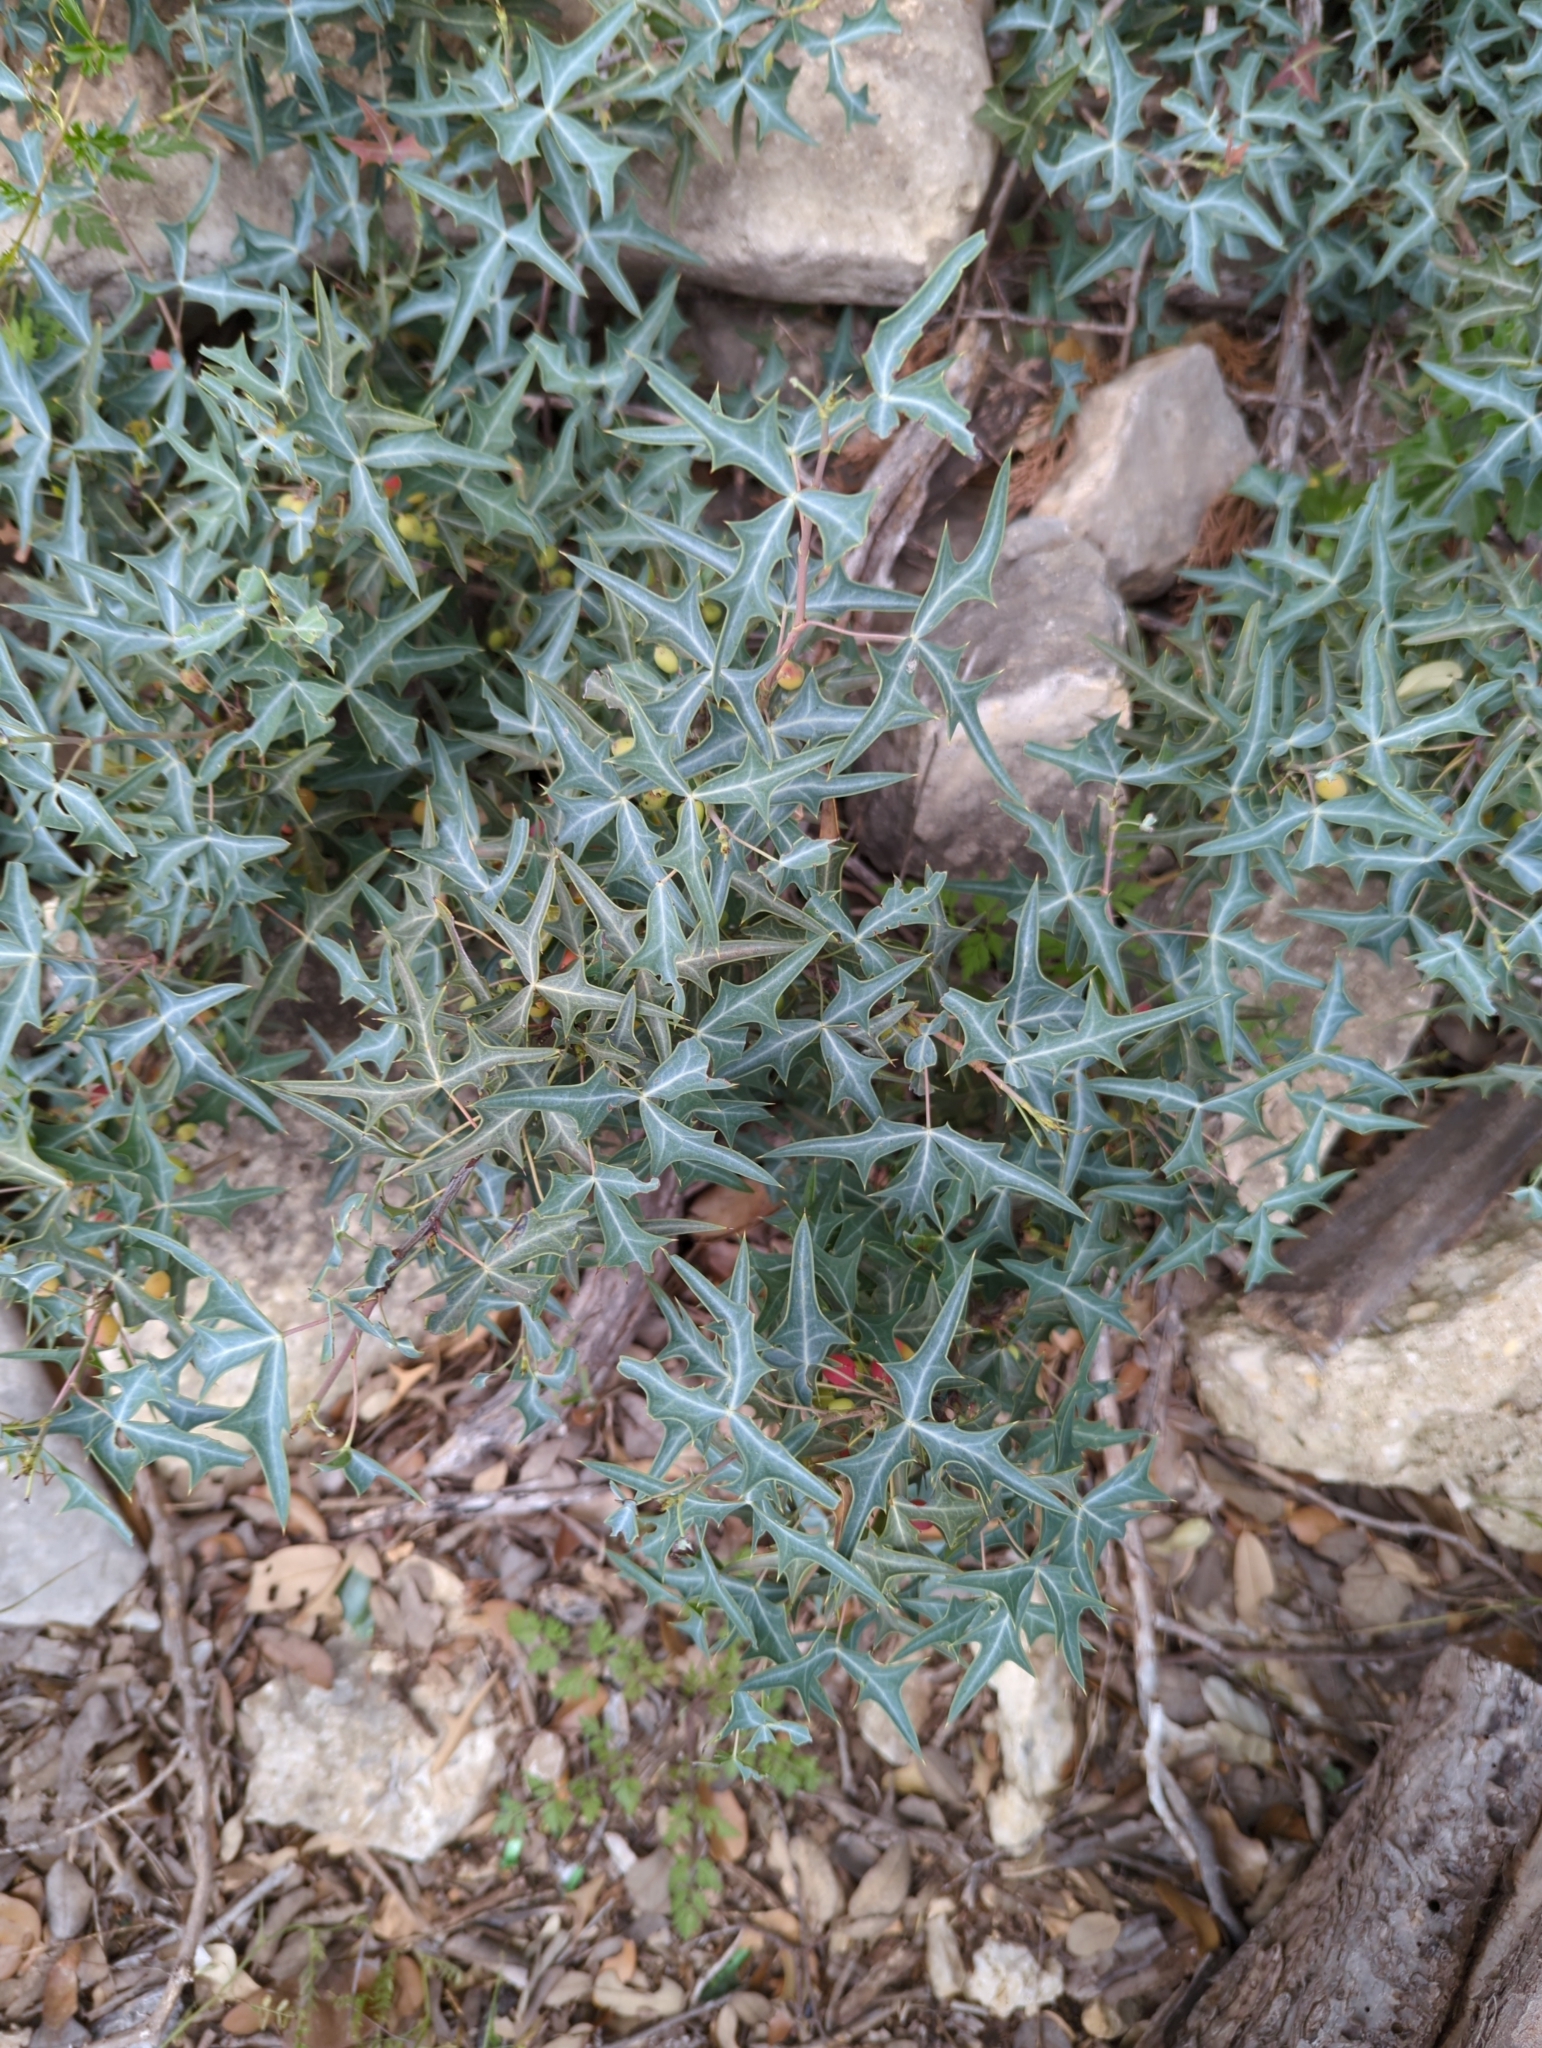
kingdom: Plantae
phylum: Tracheophyta
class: Magnoliopsida
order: Ranunculales
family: Berberidaceae
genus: Alloberberis
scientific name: Alloberberis trifoliolata
